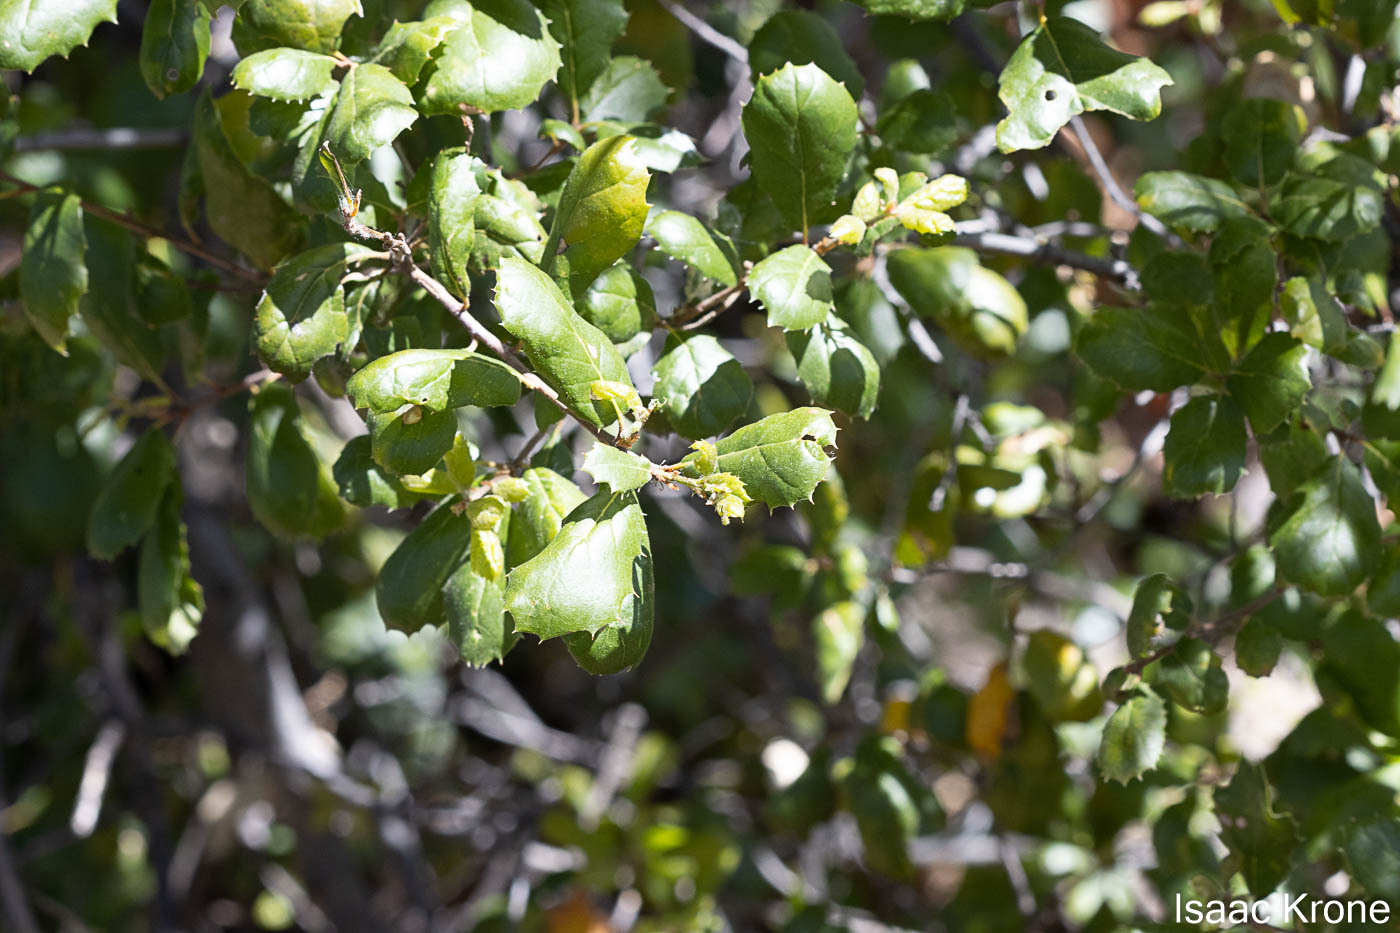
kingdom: Plantae
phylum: Tracheophyta
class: Magnoliopsida
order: Fagales
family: Fagaceae
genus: Quercus
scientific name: Quercus agrifolia
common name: California live oak
